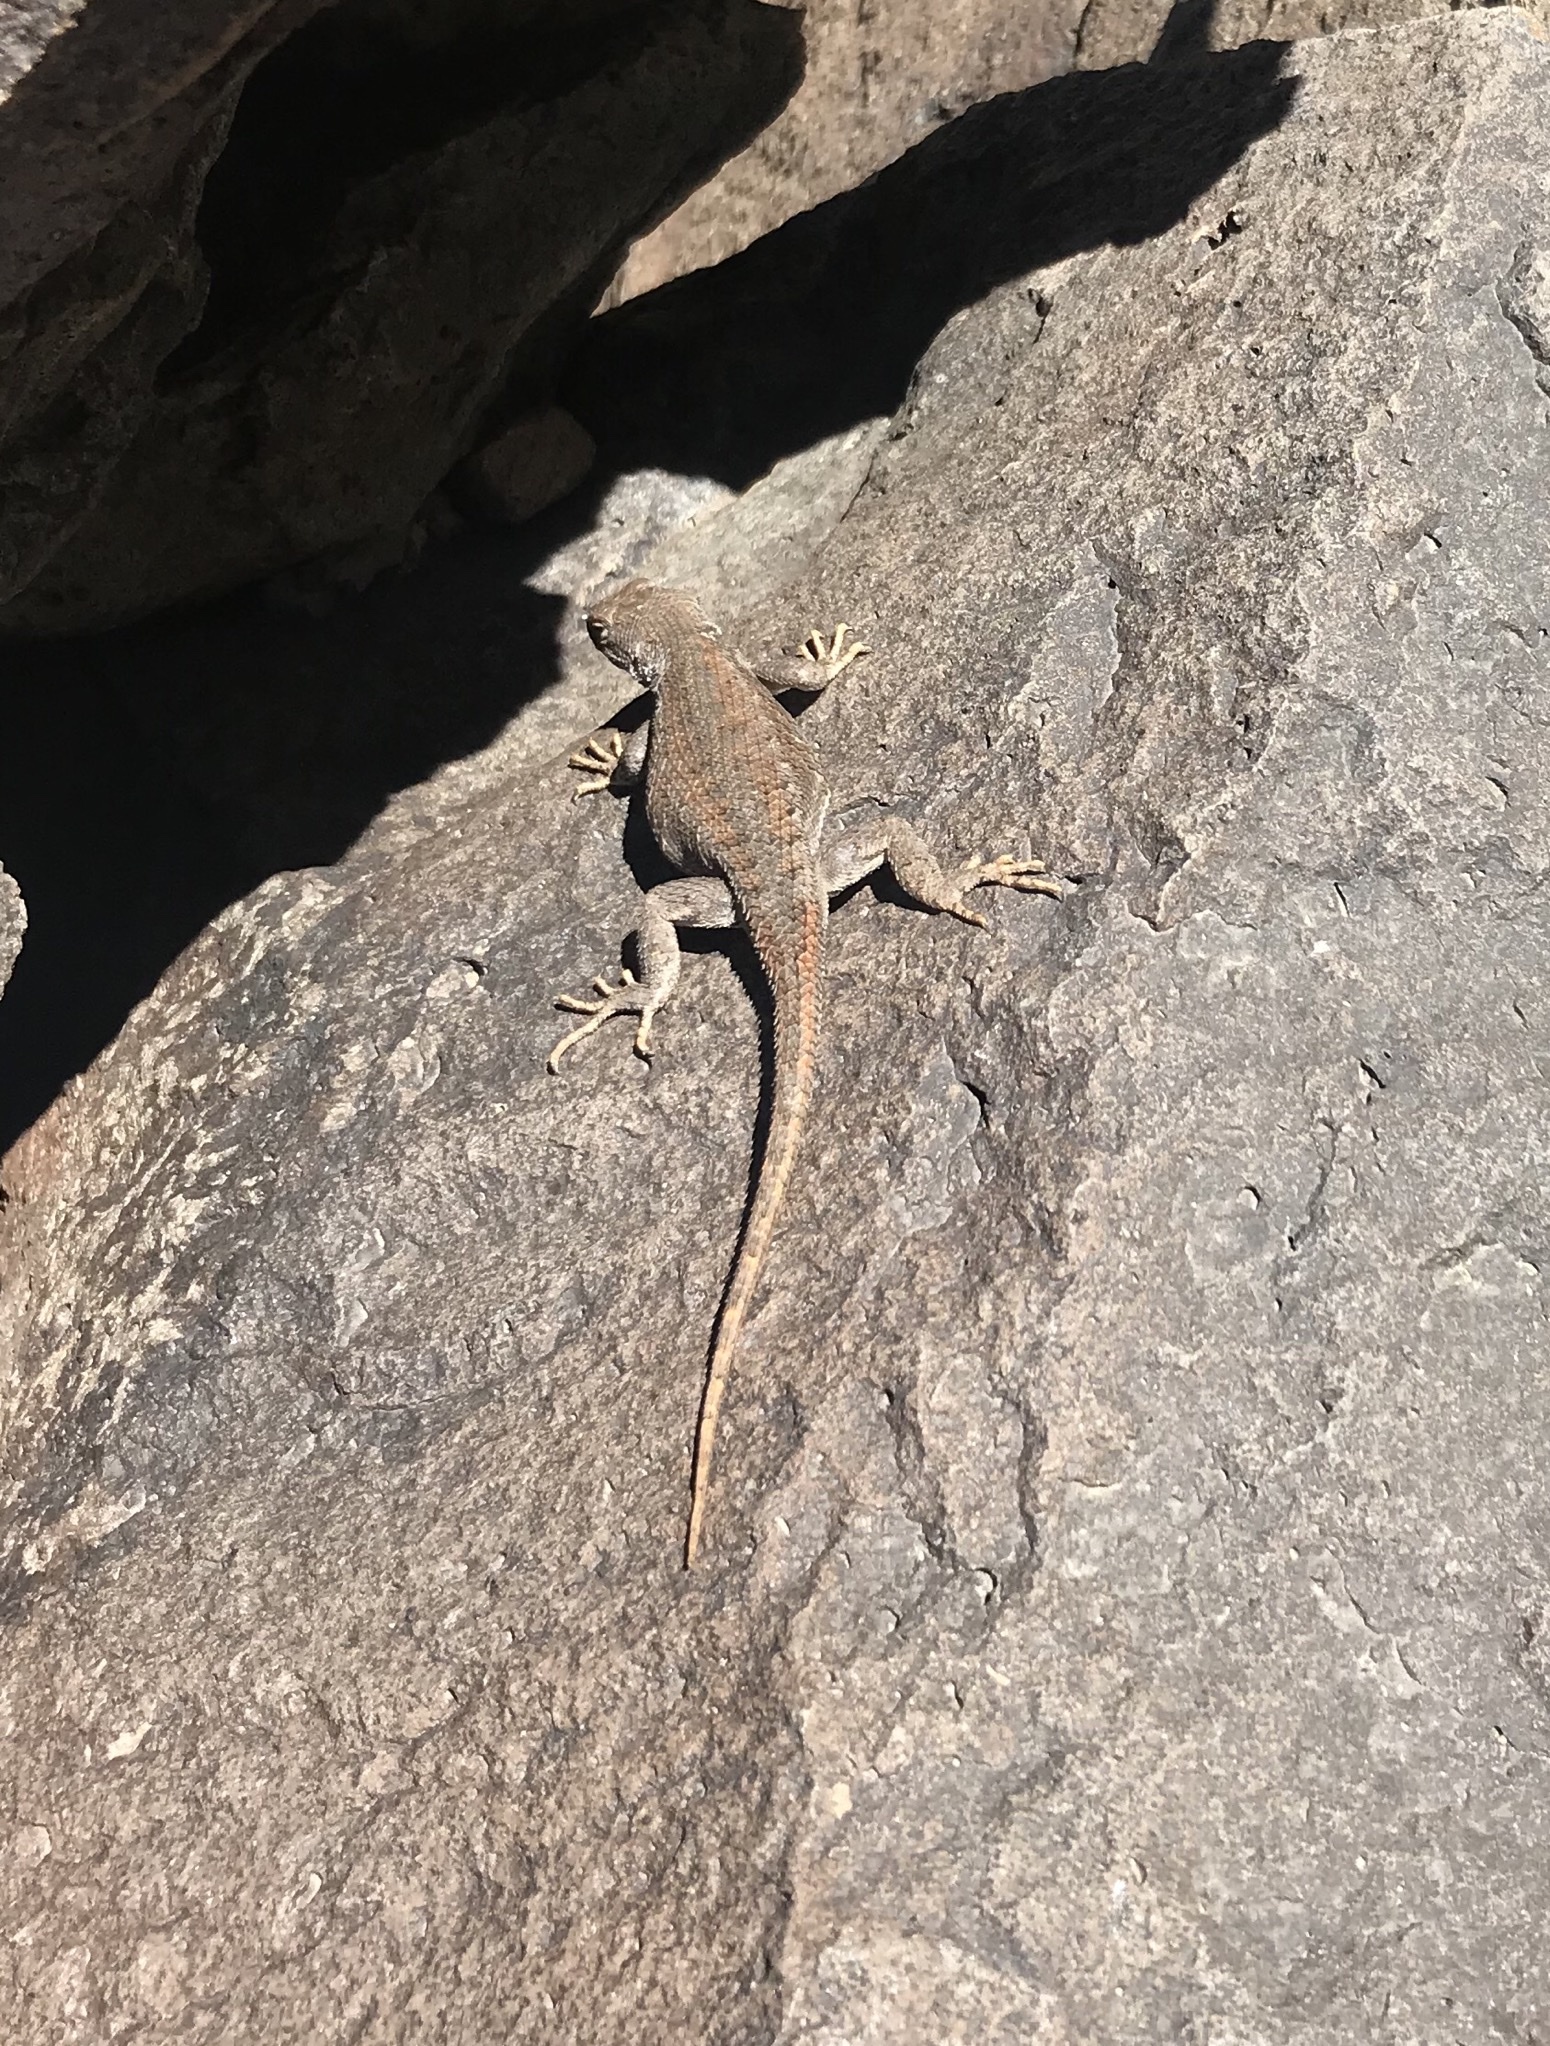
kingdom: Animalia
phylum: Chordata
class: Squamata
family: Phrynosomatidae
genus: Sceloporus
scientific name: Sceloporus
